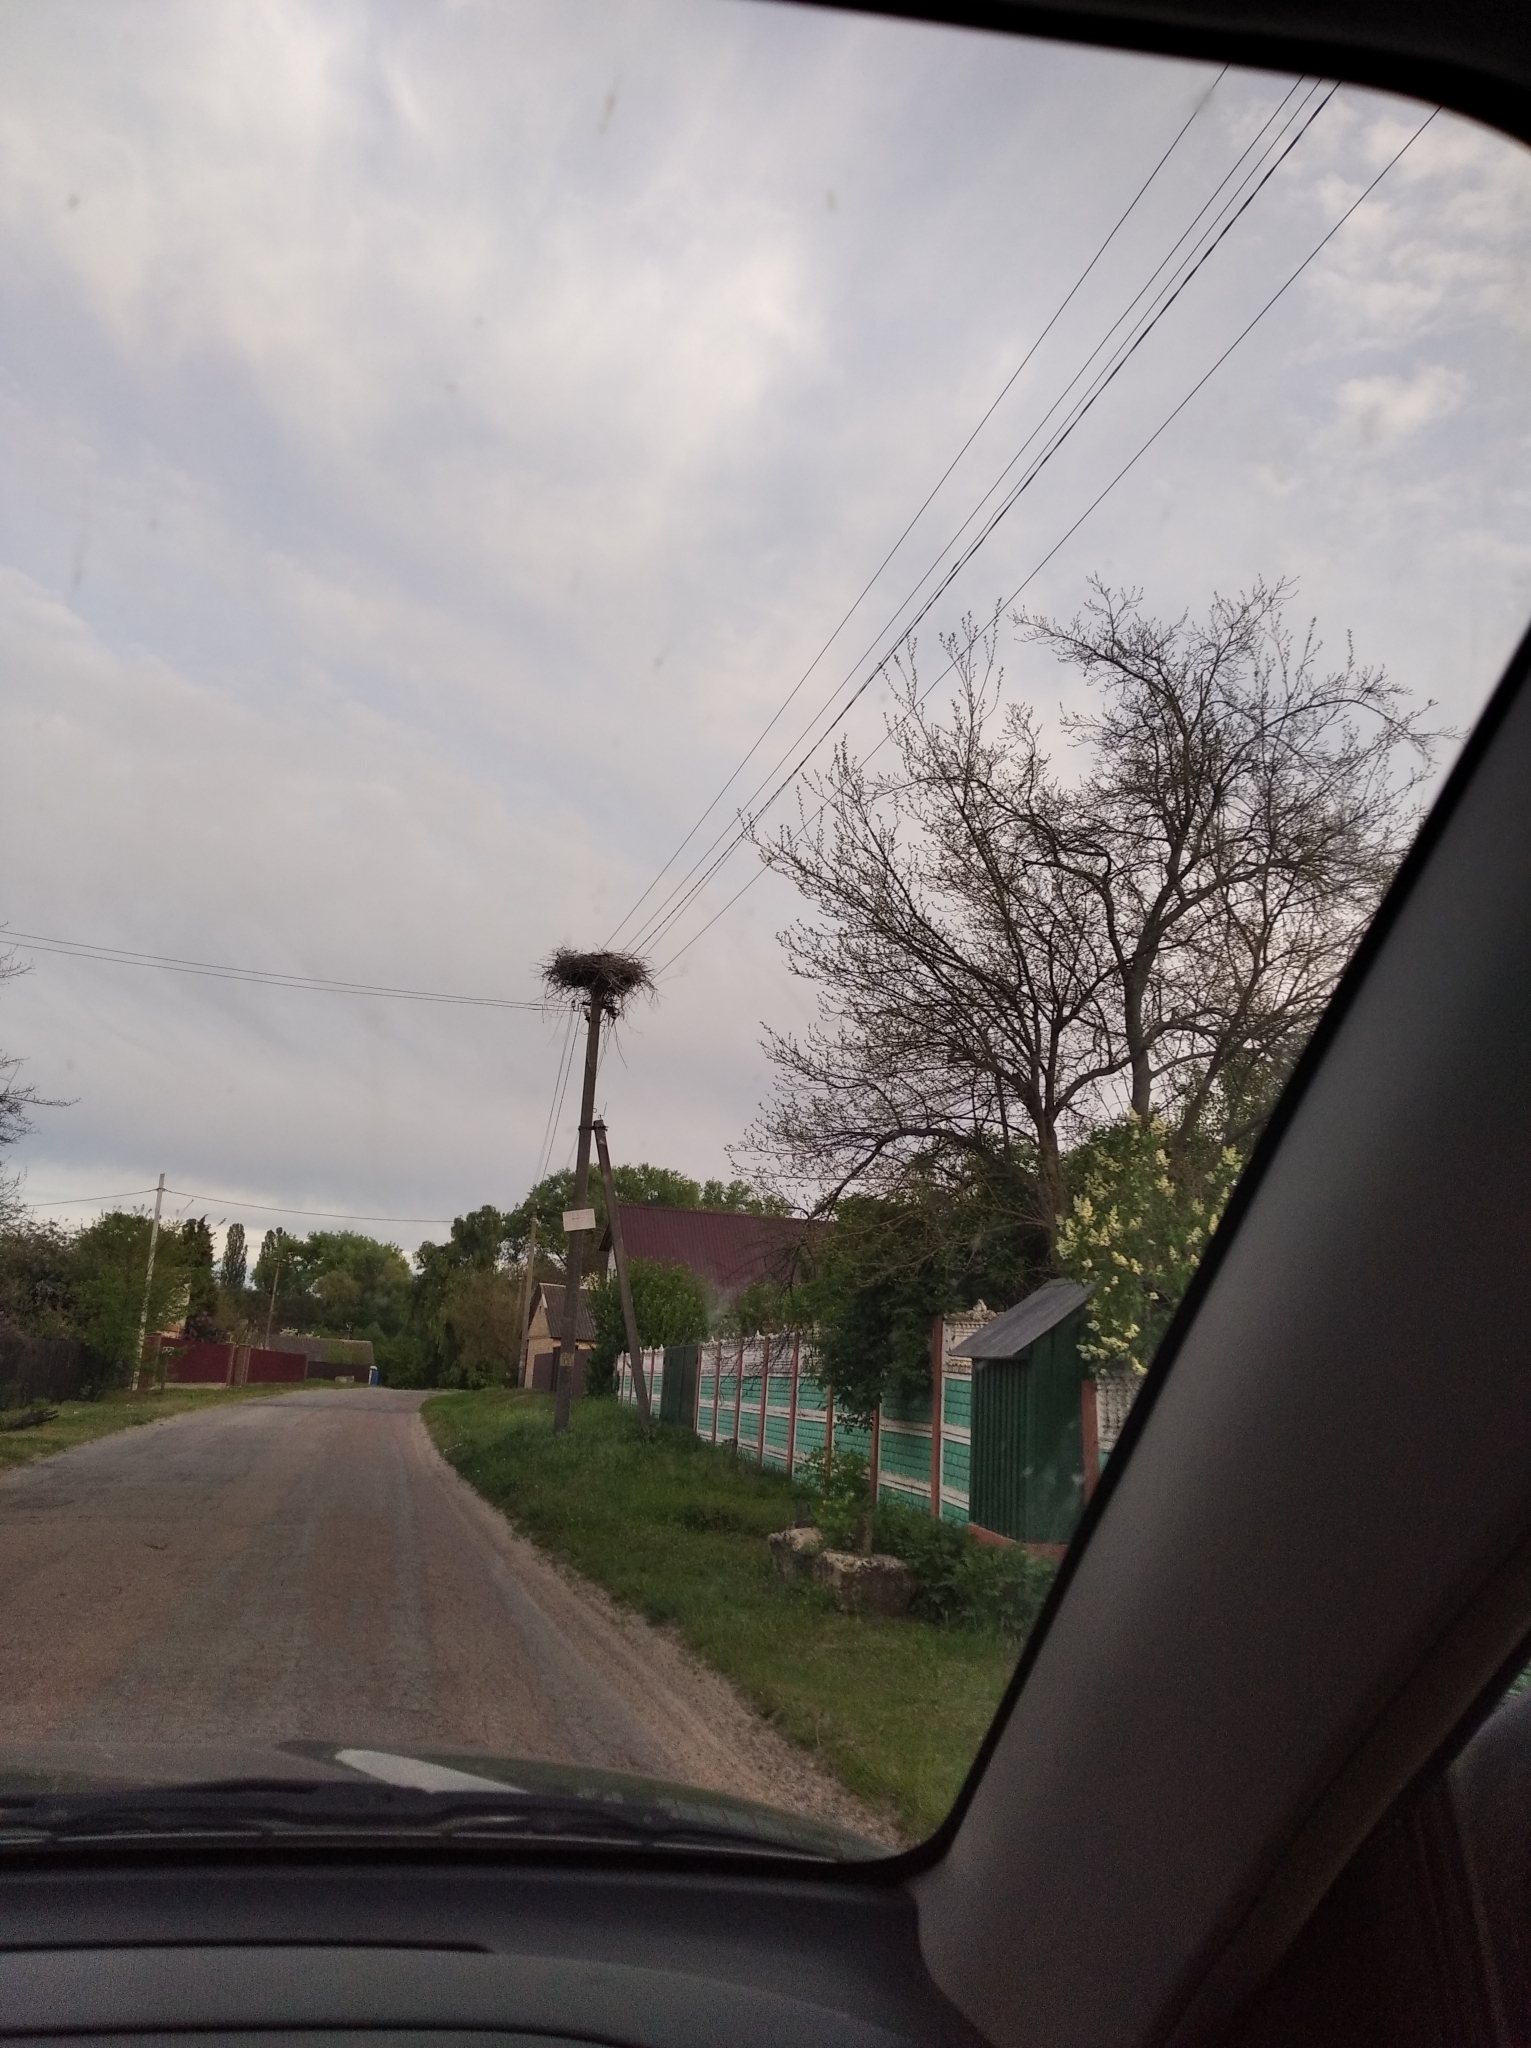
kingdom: Animalia
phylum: Chordata
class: Aves
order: Ciconiiformes
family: Ciconiidae
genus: Ciconia
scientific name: Ciconia ciconia
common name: White stork
